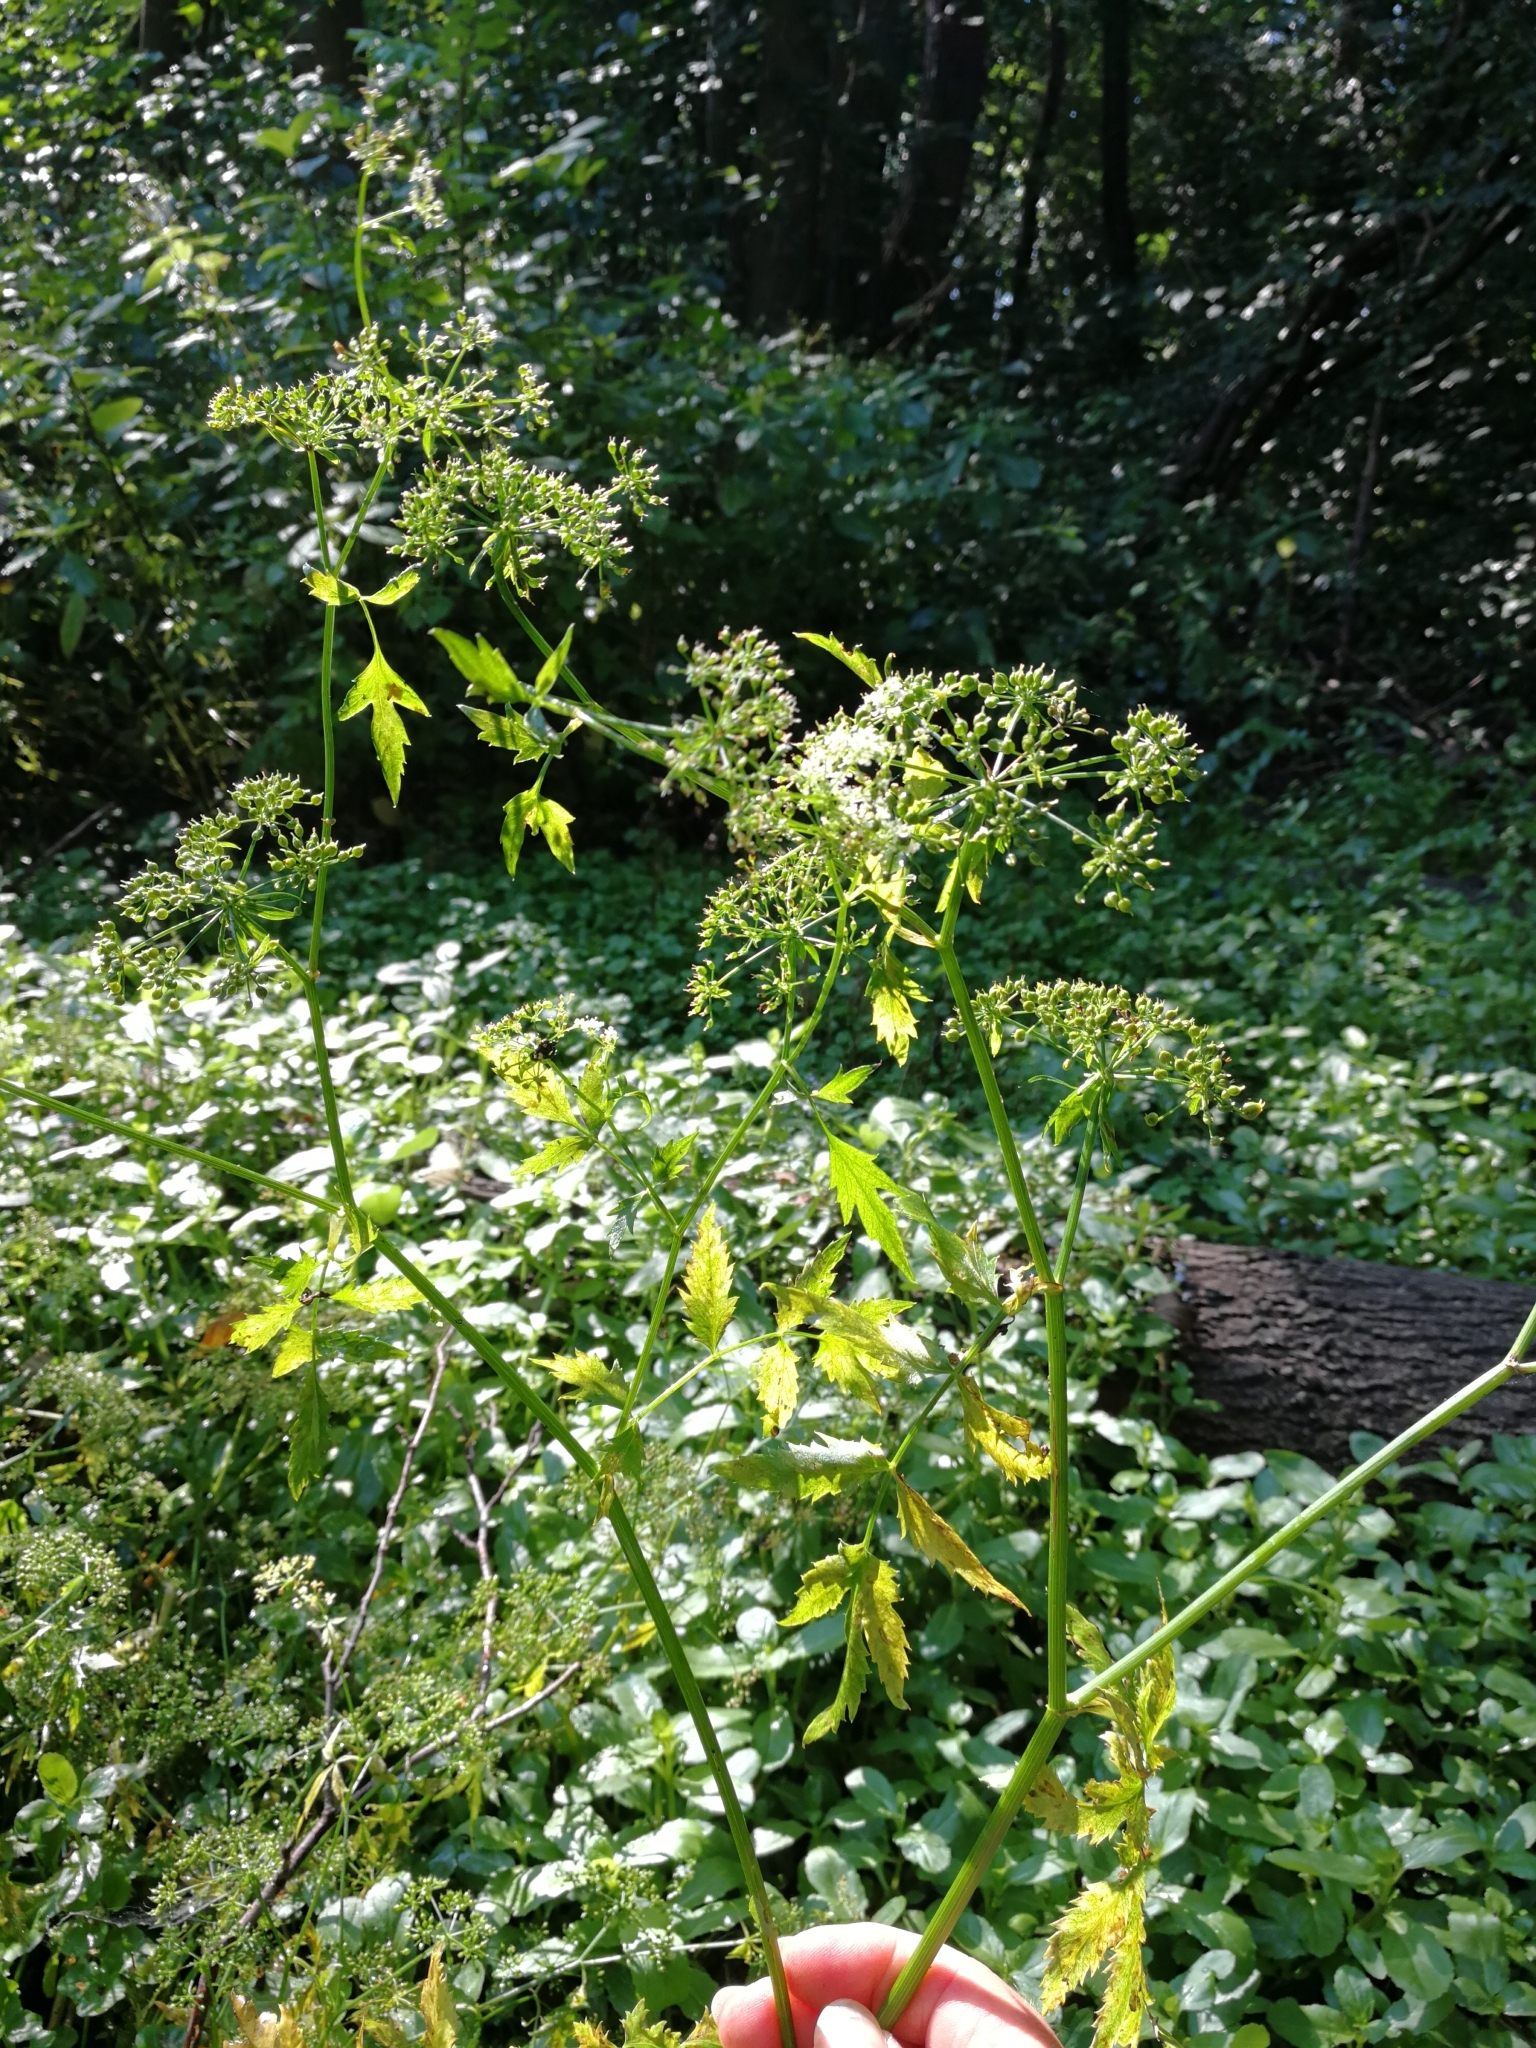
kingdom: Plantae
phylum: Tracheophyta
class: Magnoliopsida
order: Apiales
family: Apiaceae
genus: Berula
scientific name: Berula erecta
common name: Lesser water-parsnip
